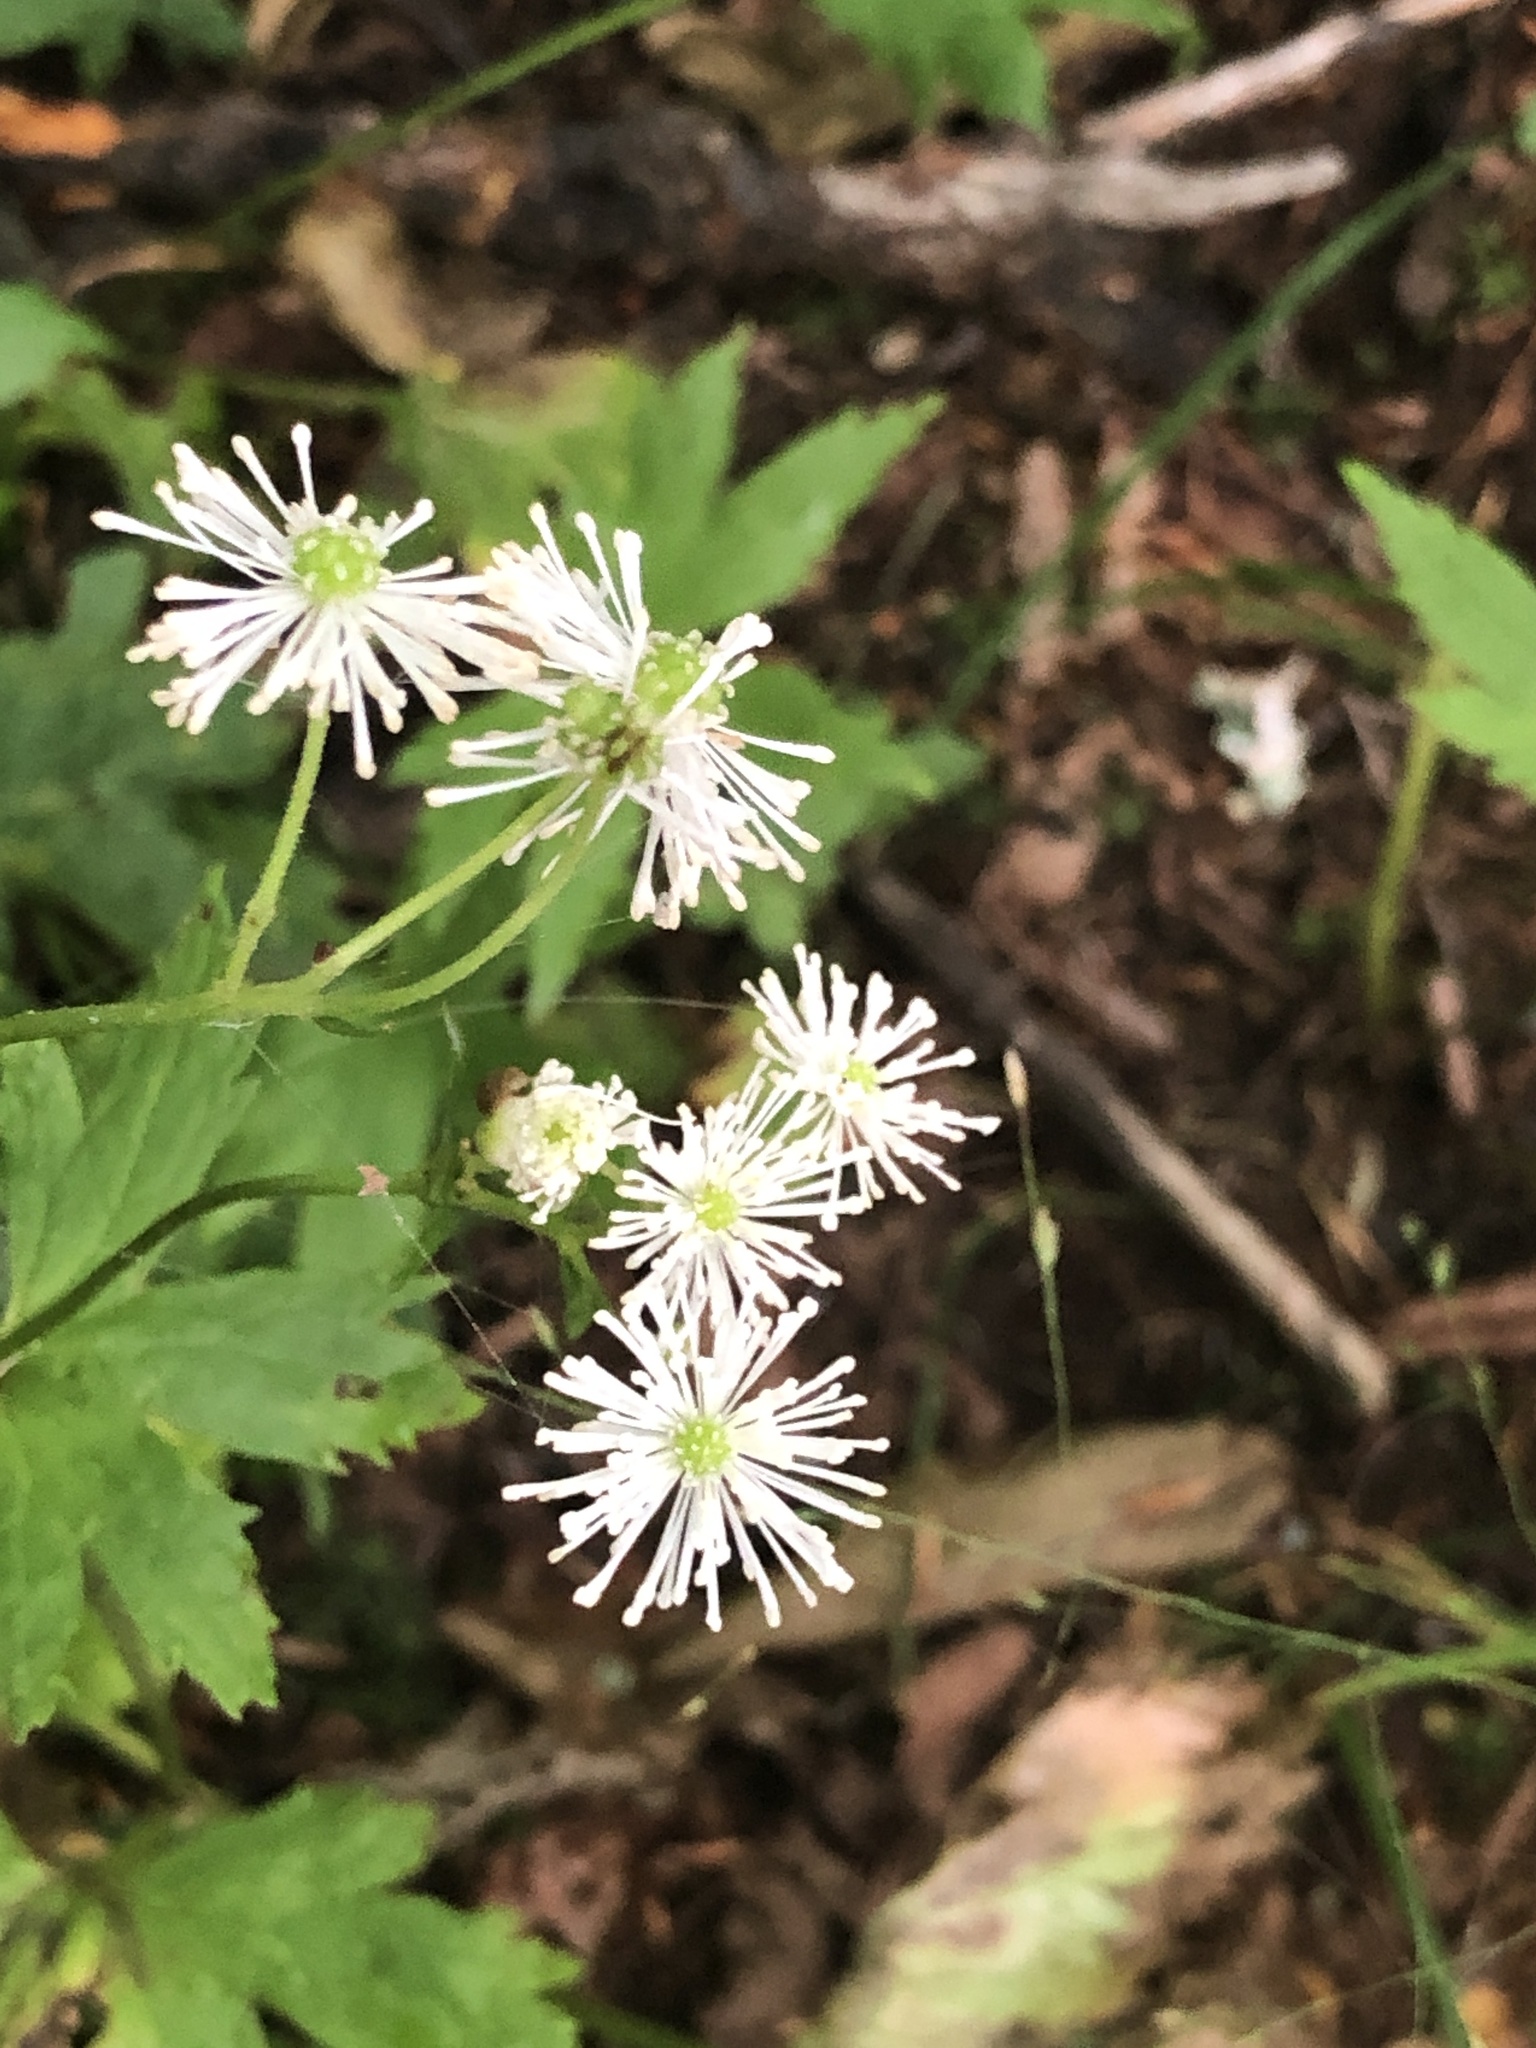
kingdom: Plantae
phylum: Tracheophyta
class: Magnoliopsida
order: Ranunculales
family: Ranunculaceae
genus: Trautvetteria
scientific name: Trautvetteria carolinensis
